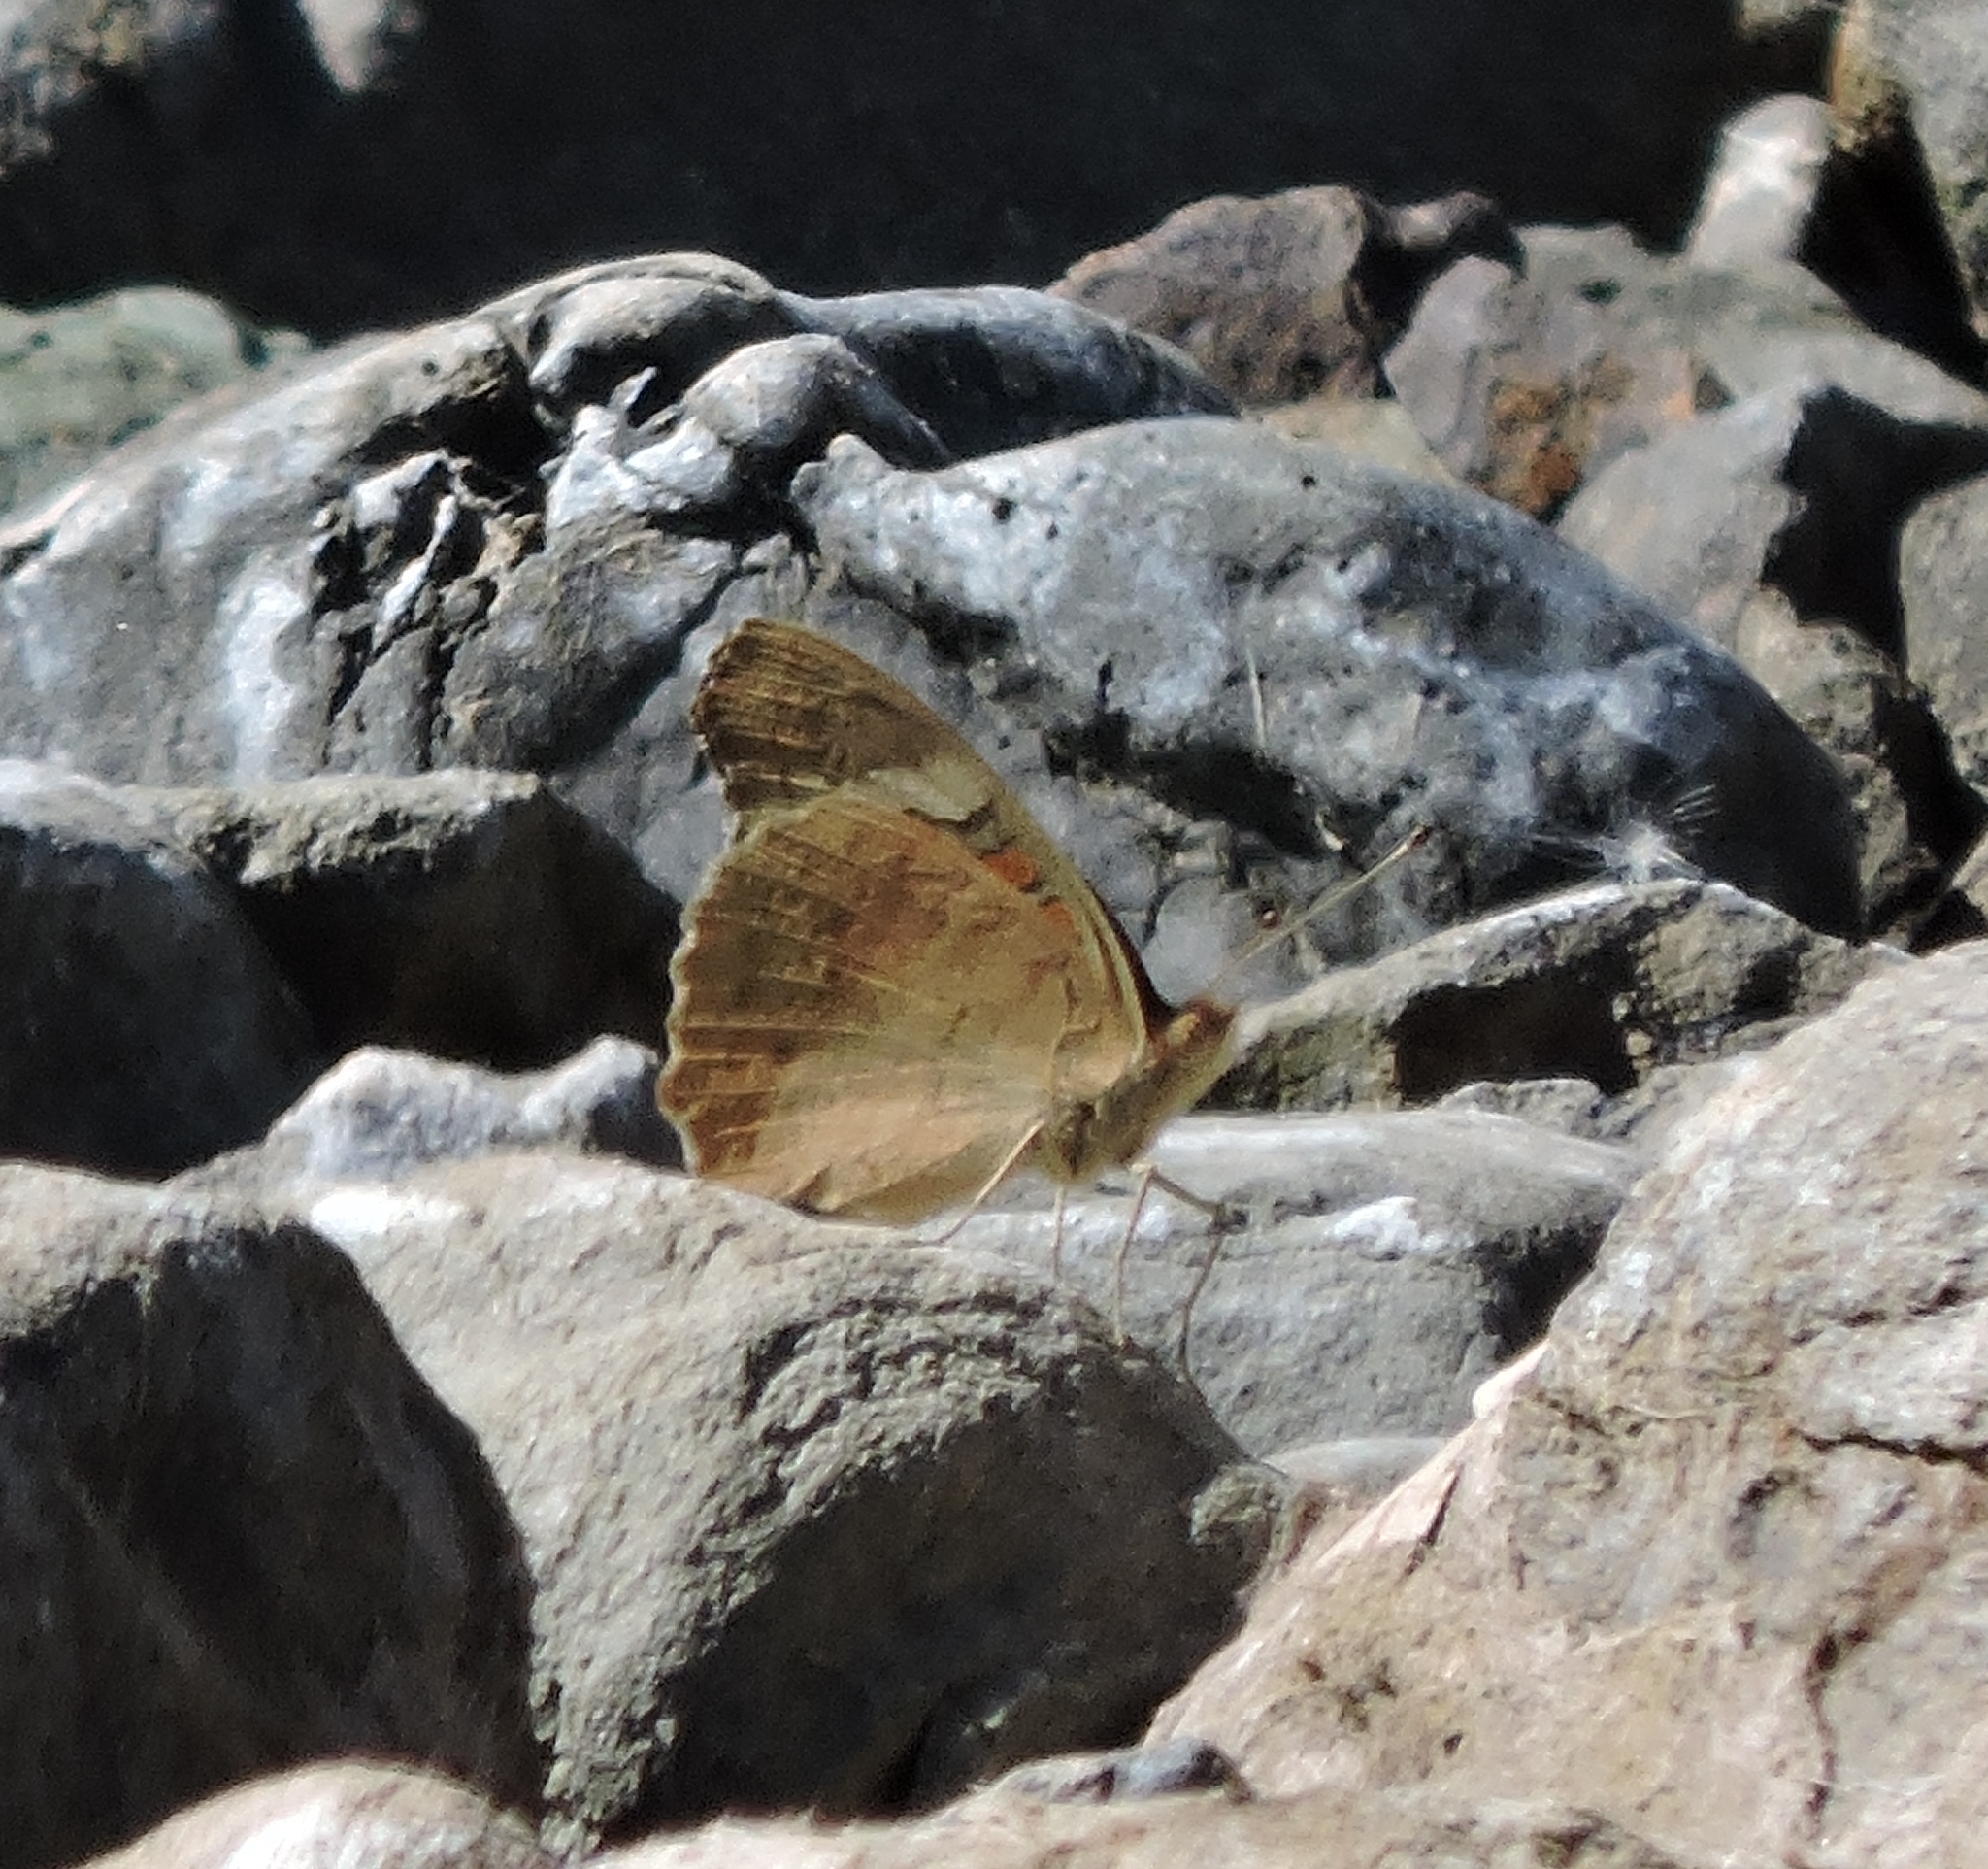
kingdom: Animalia
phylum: Arthropoda
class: Insecta
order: Lepidoptera
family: Nymphalidae
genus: Junonia
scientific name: Junonia grisea
